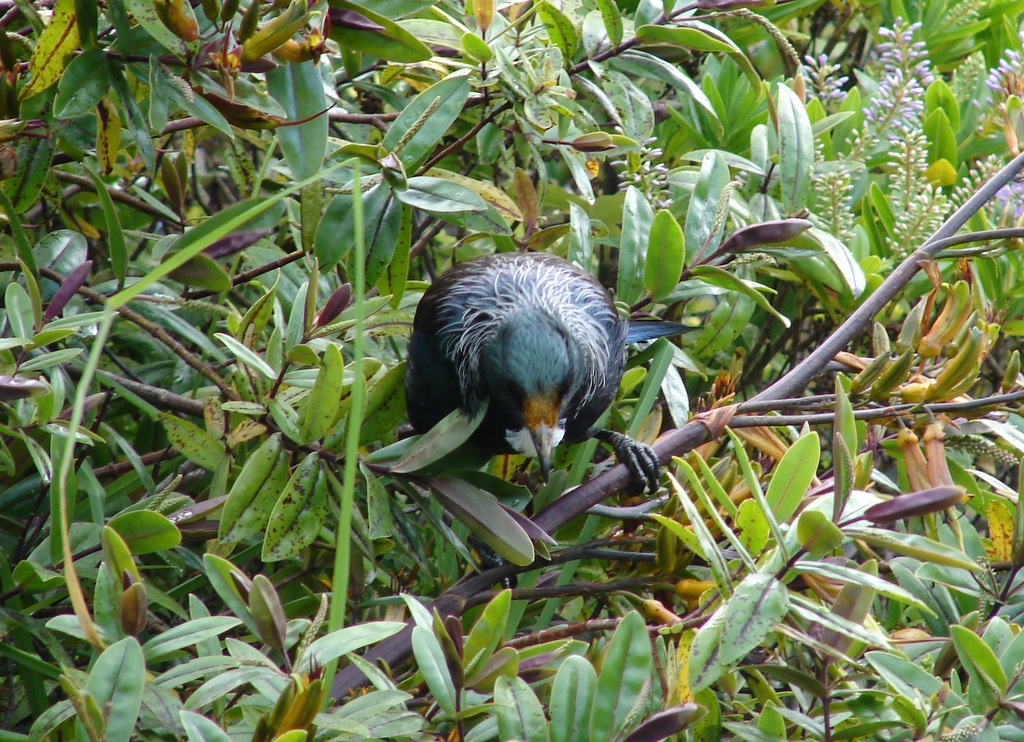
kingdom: Animalia
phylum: Chordata
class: Aves
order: Passeriformes
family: Meliphagidae
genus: Prosthemadera
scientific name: Prosthemadera novaeseelandiae
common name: Tui
